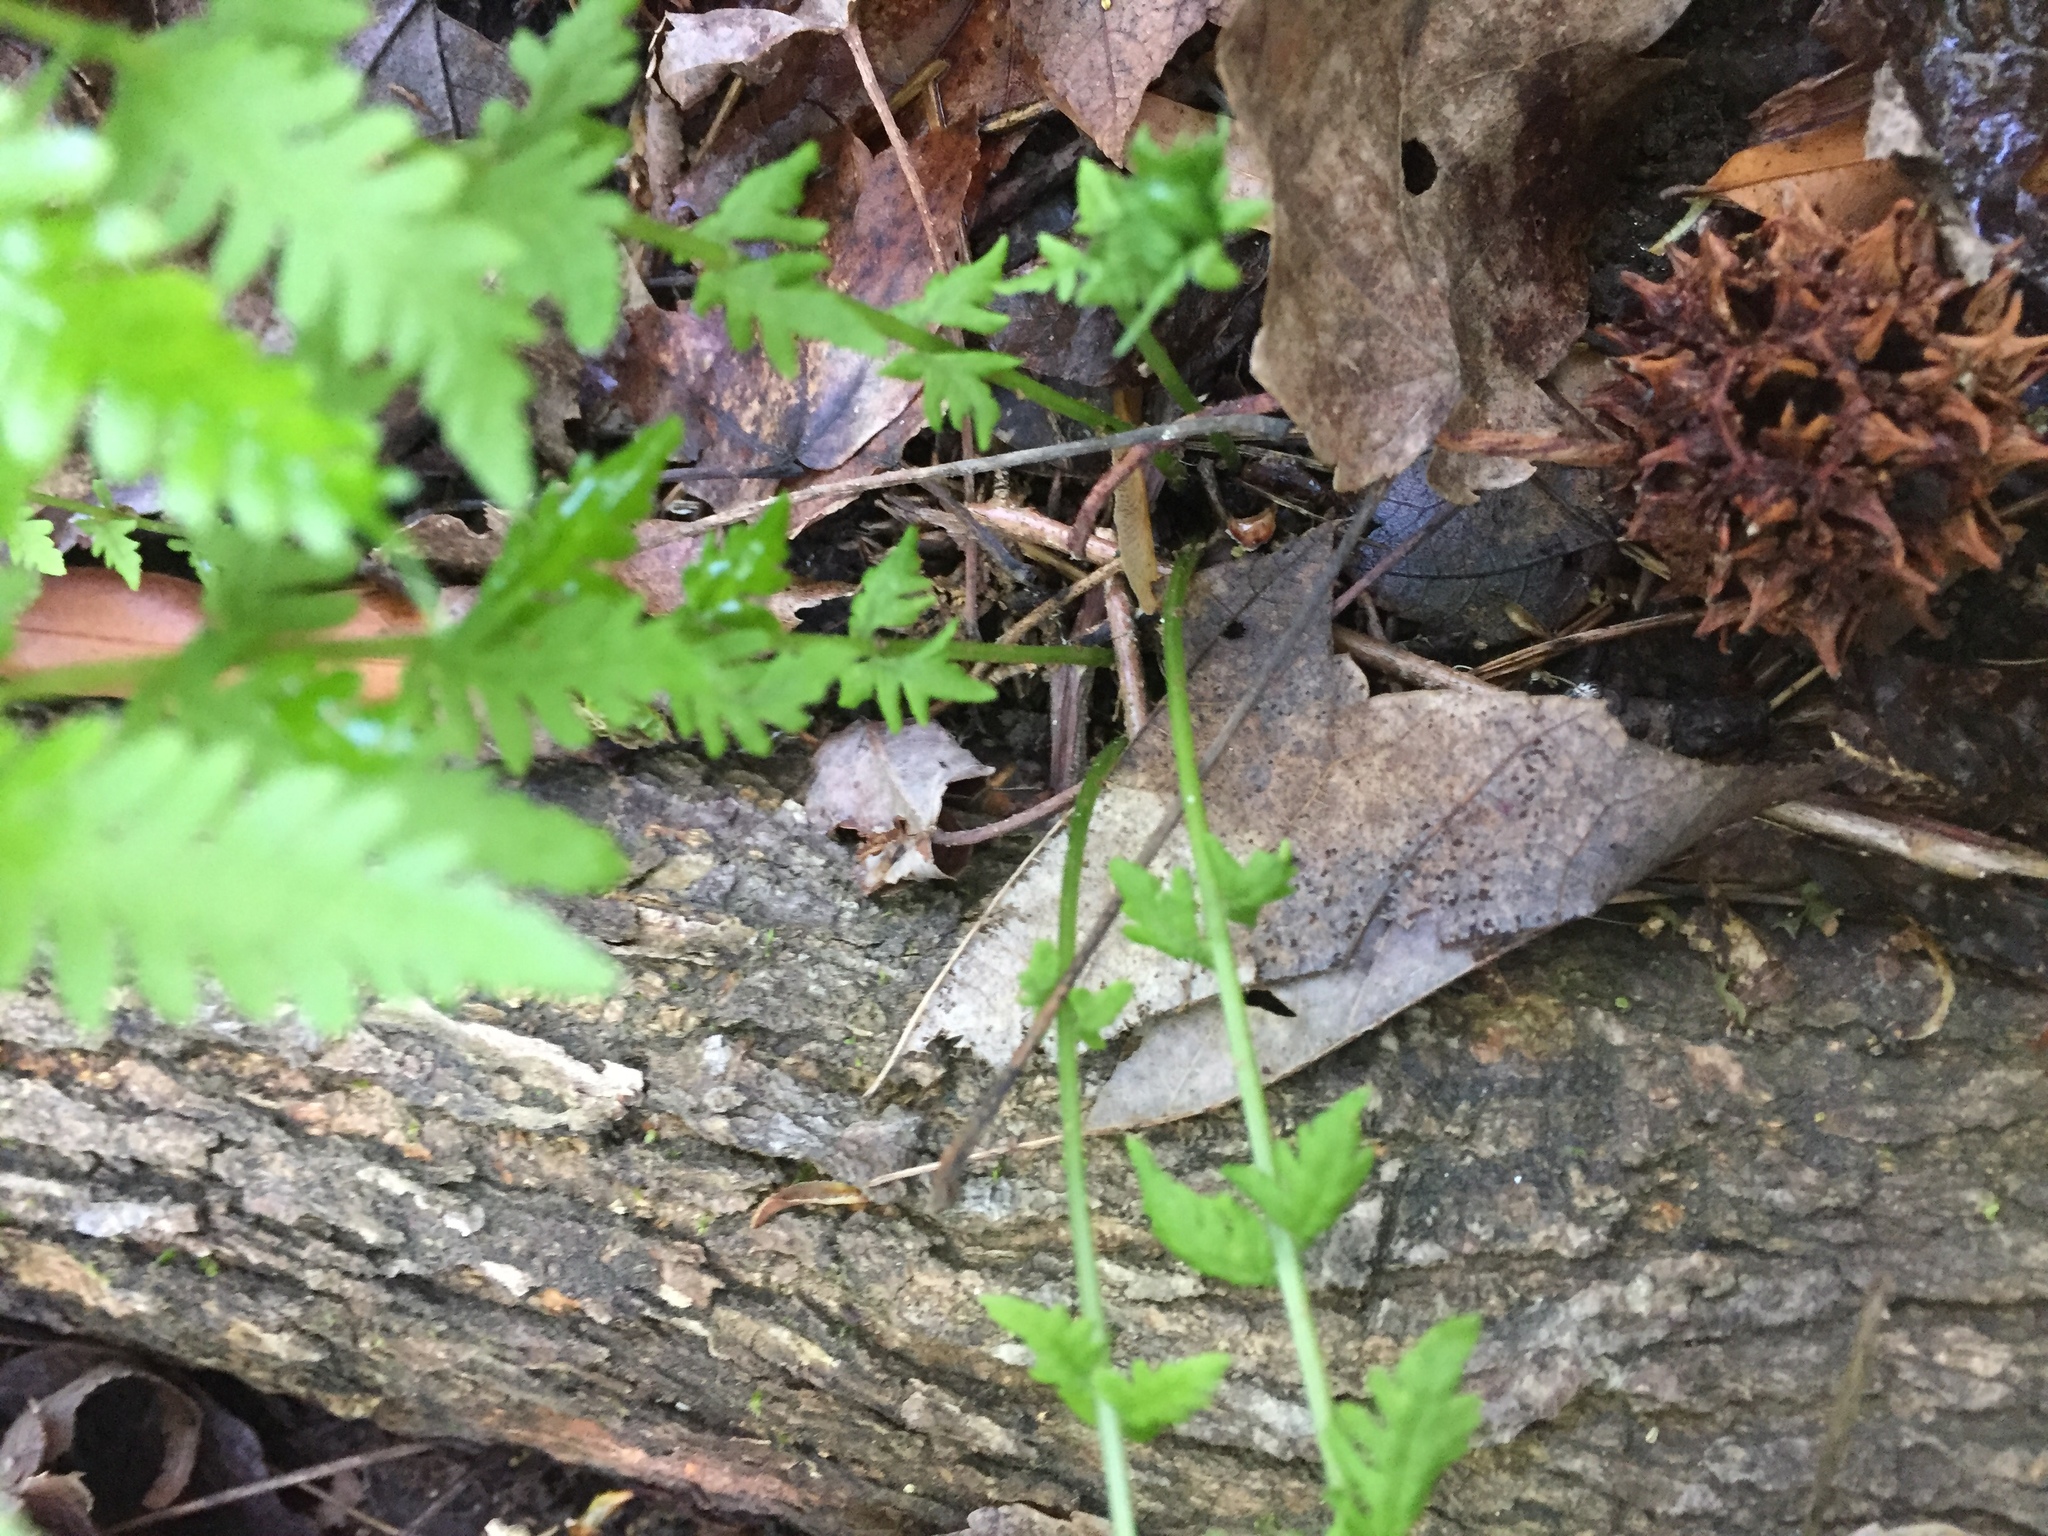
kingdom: Plantae
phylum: Tracheophyta
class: Polypodiopsida
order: Polypodiales
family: Thelypteridaceae
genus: Amauropelta
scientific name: Amauropelta noveboracensis
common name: New york fern
